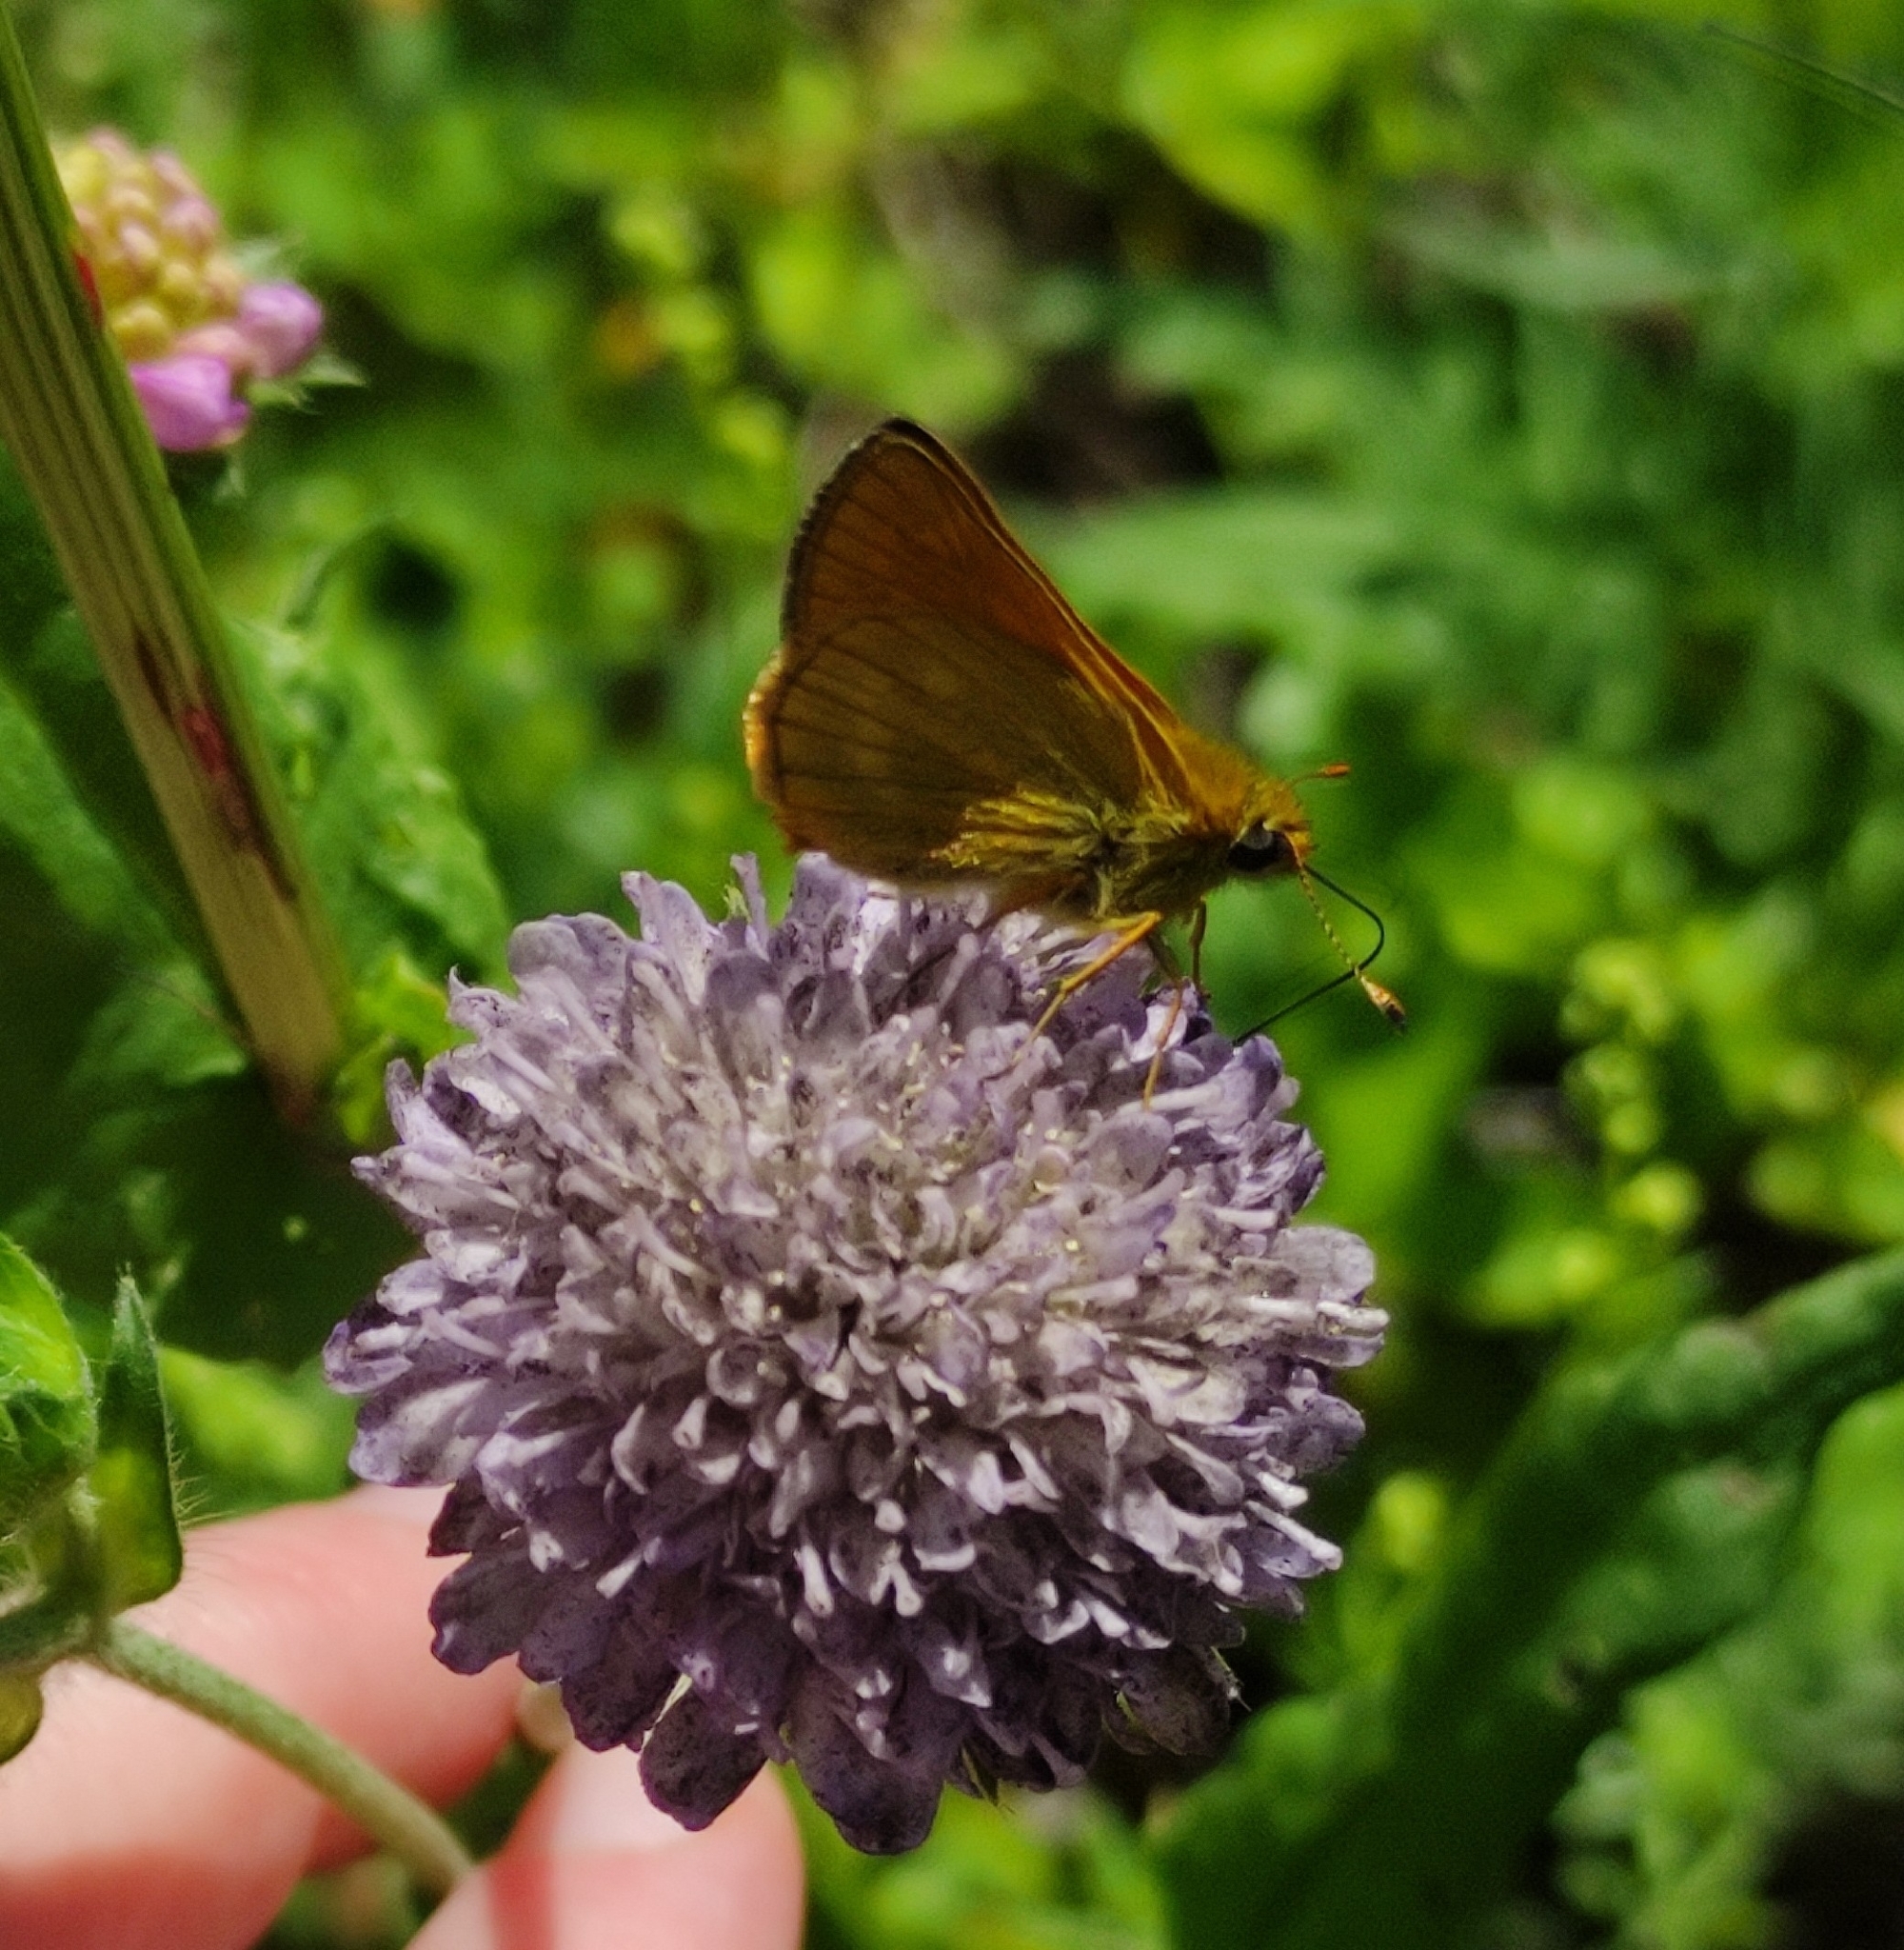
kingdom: Animalia
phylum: Arthropoda
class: Insecta
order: Lepidoptera
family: Hesperiidae
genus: Ochlodes
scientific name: Ochlodes venata
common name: Large skipper
